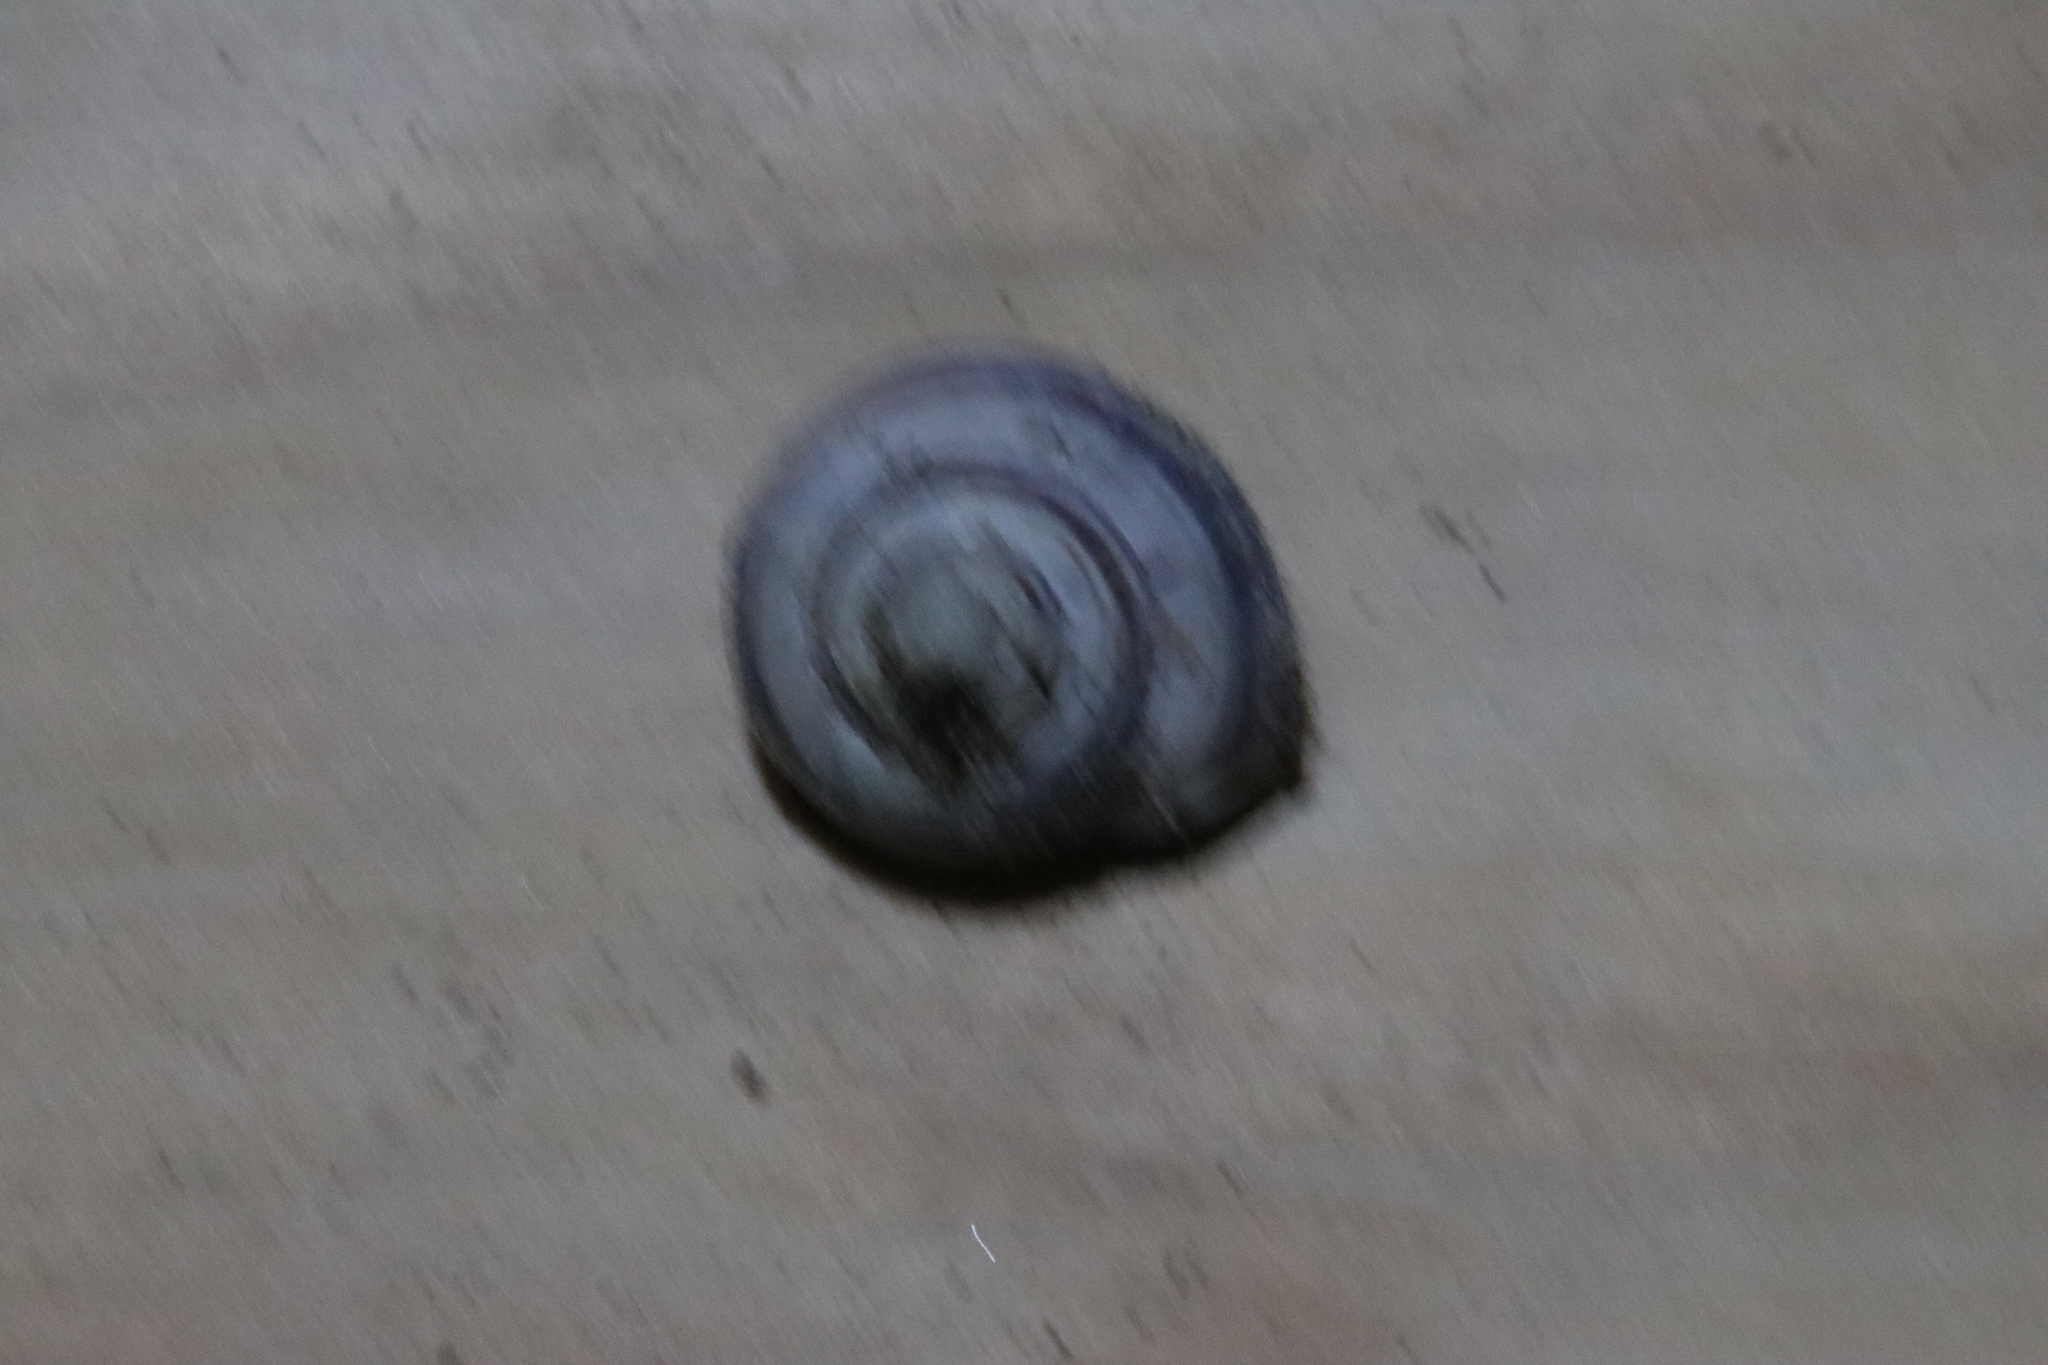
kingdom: Animalia
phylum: Mollusca
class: Gastropoda
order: Stylommatophora
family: Helicidae
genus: Cepaea
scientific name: Cepaea nemoralis
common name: Grovesnail
